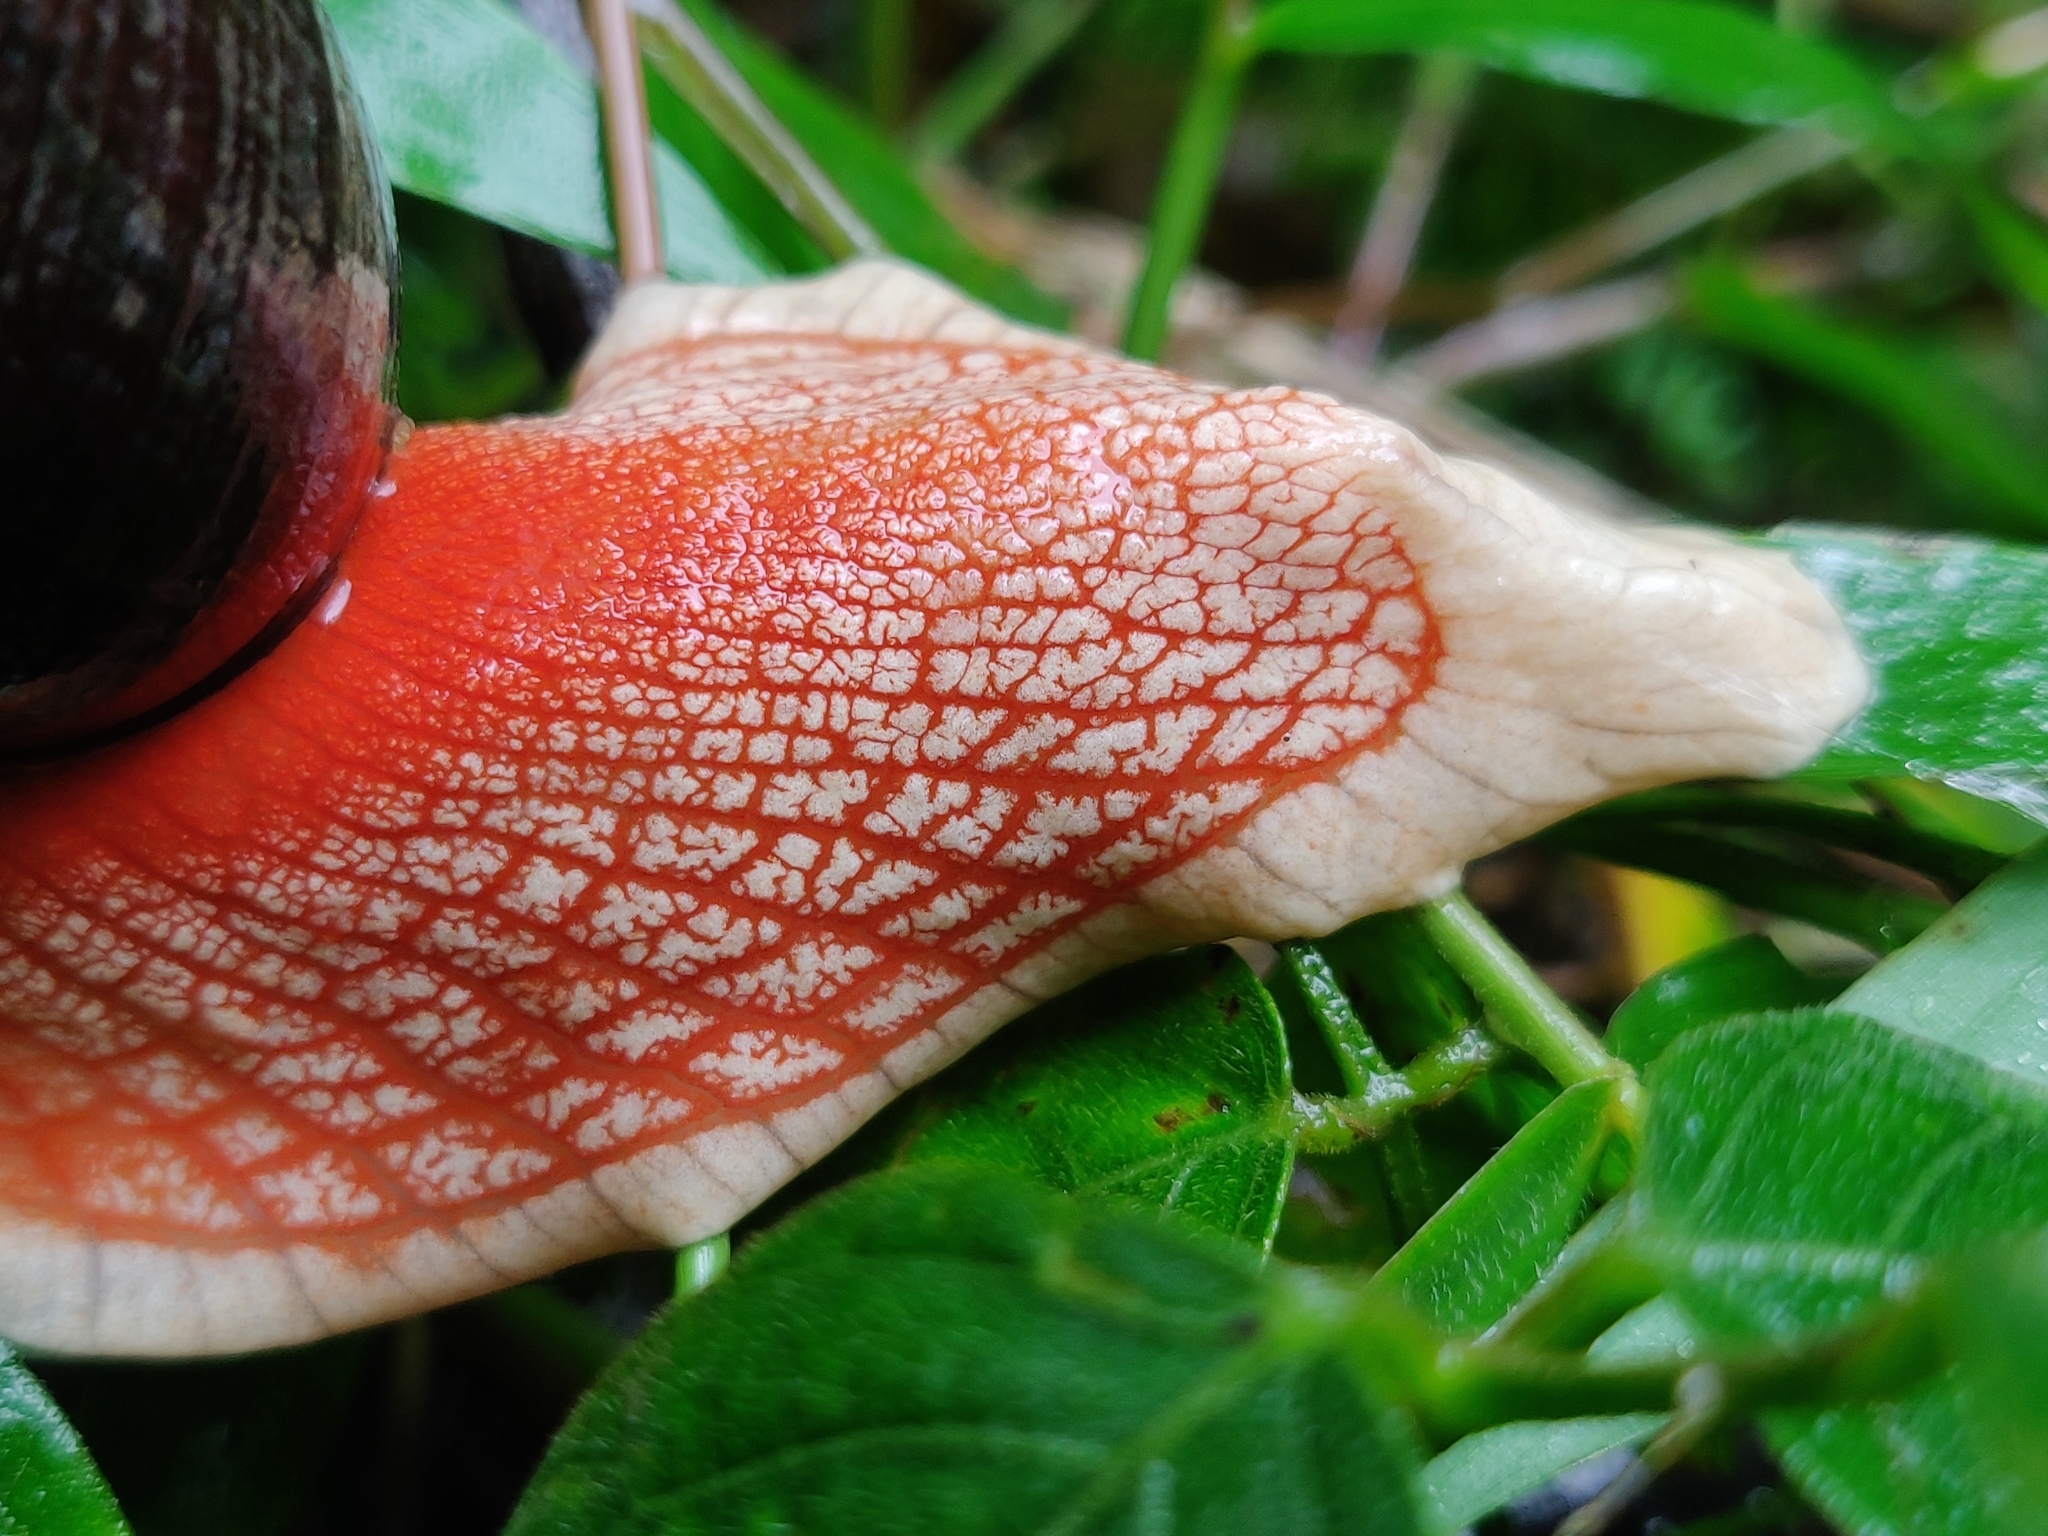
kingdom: Animalia
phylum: Mollusca
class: Gastropoda
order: Stylommatophora
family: Ariophantidae
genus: Indrella
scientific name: Indrella ampulla
